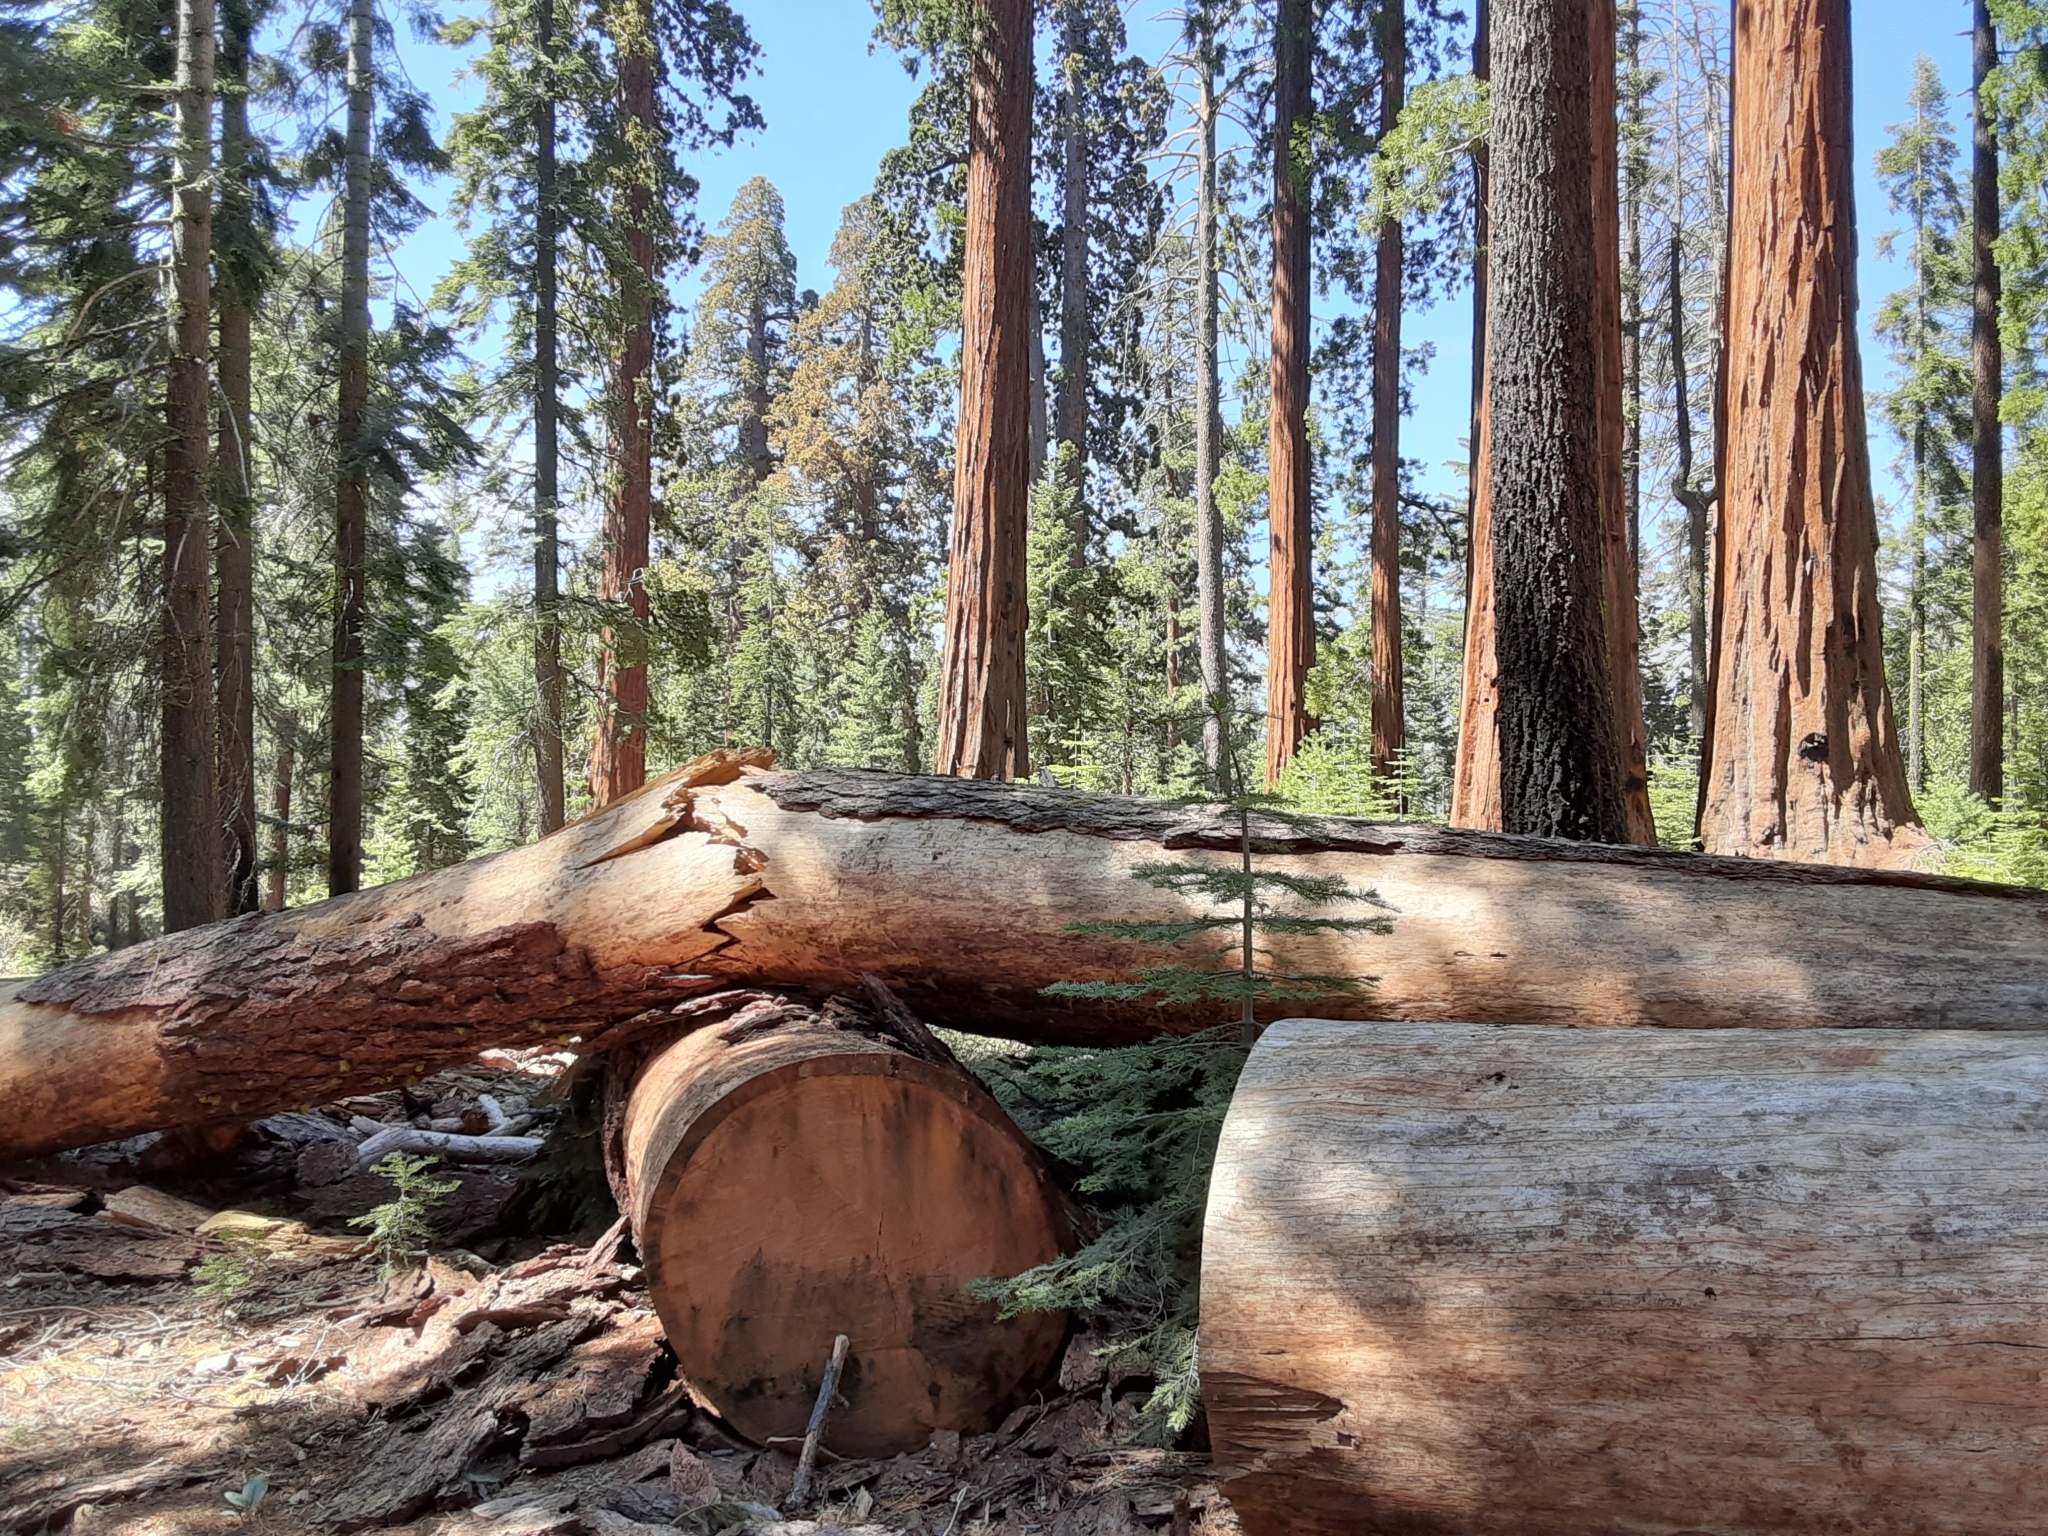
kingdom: Plantae
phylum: Tracheophyta
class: Pinopsida
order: Pinales
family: Cupressaceae
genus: Sequoiadendron
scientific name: Sequoiadendron giganteum
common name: Wellingtonia
